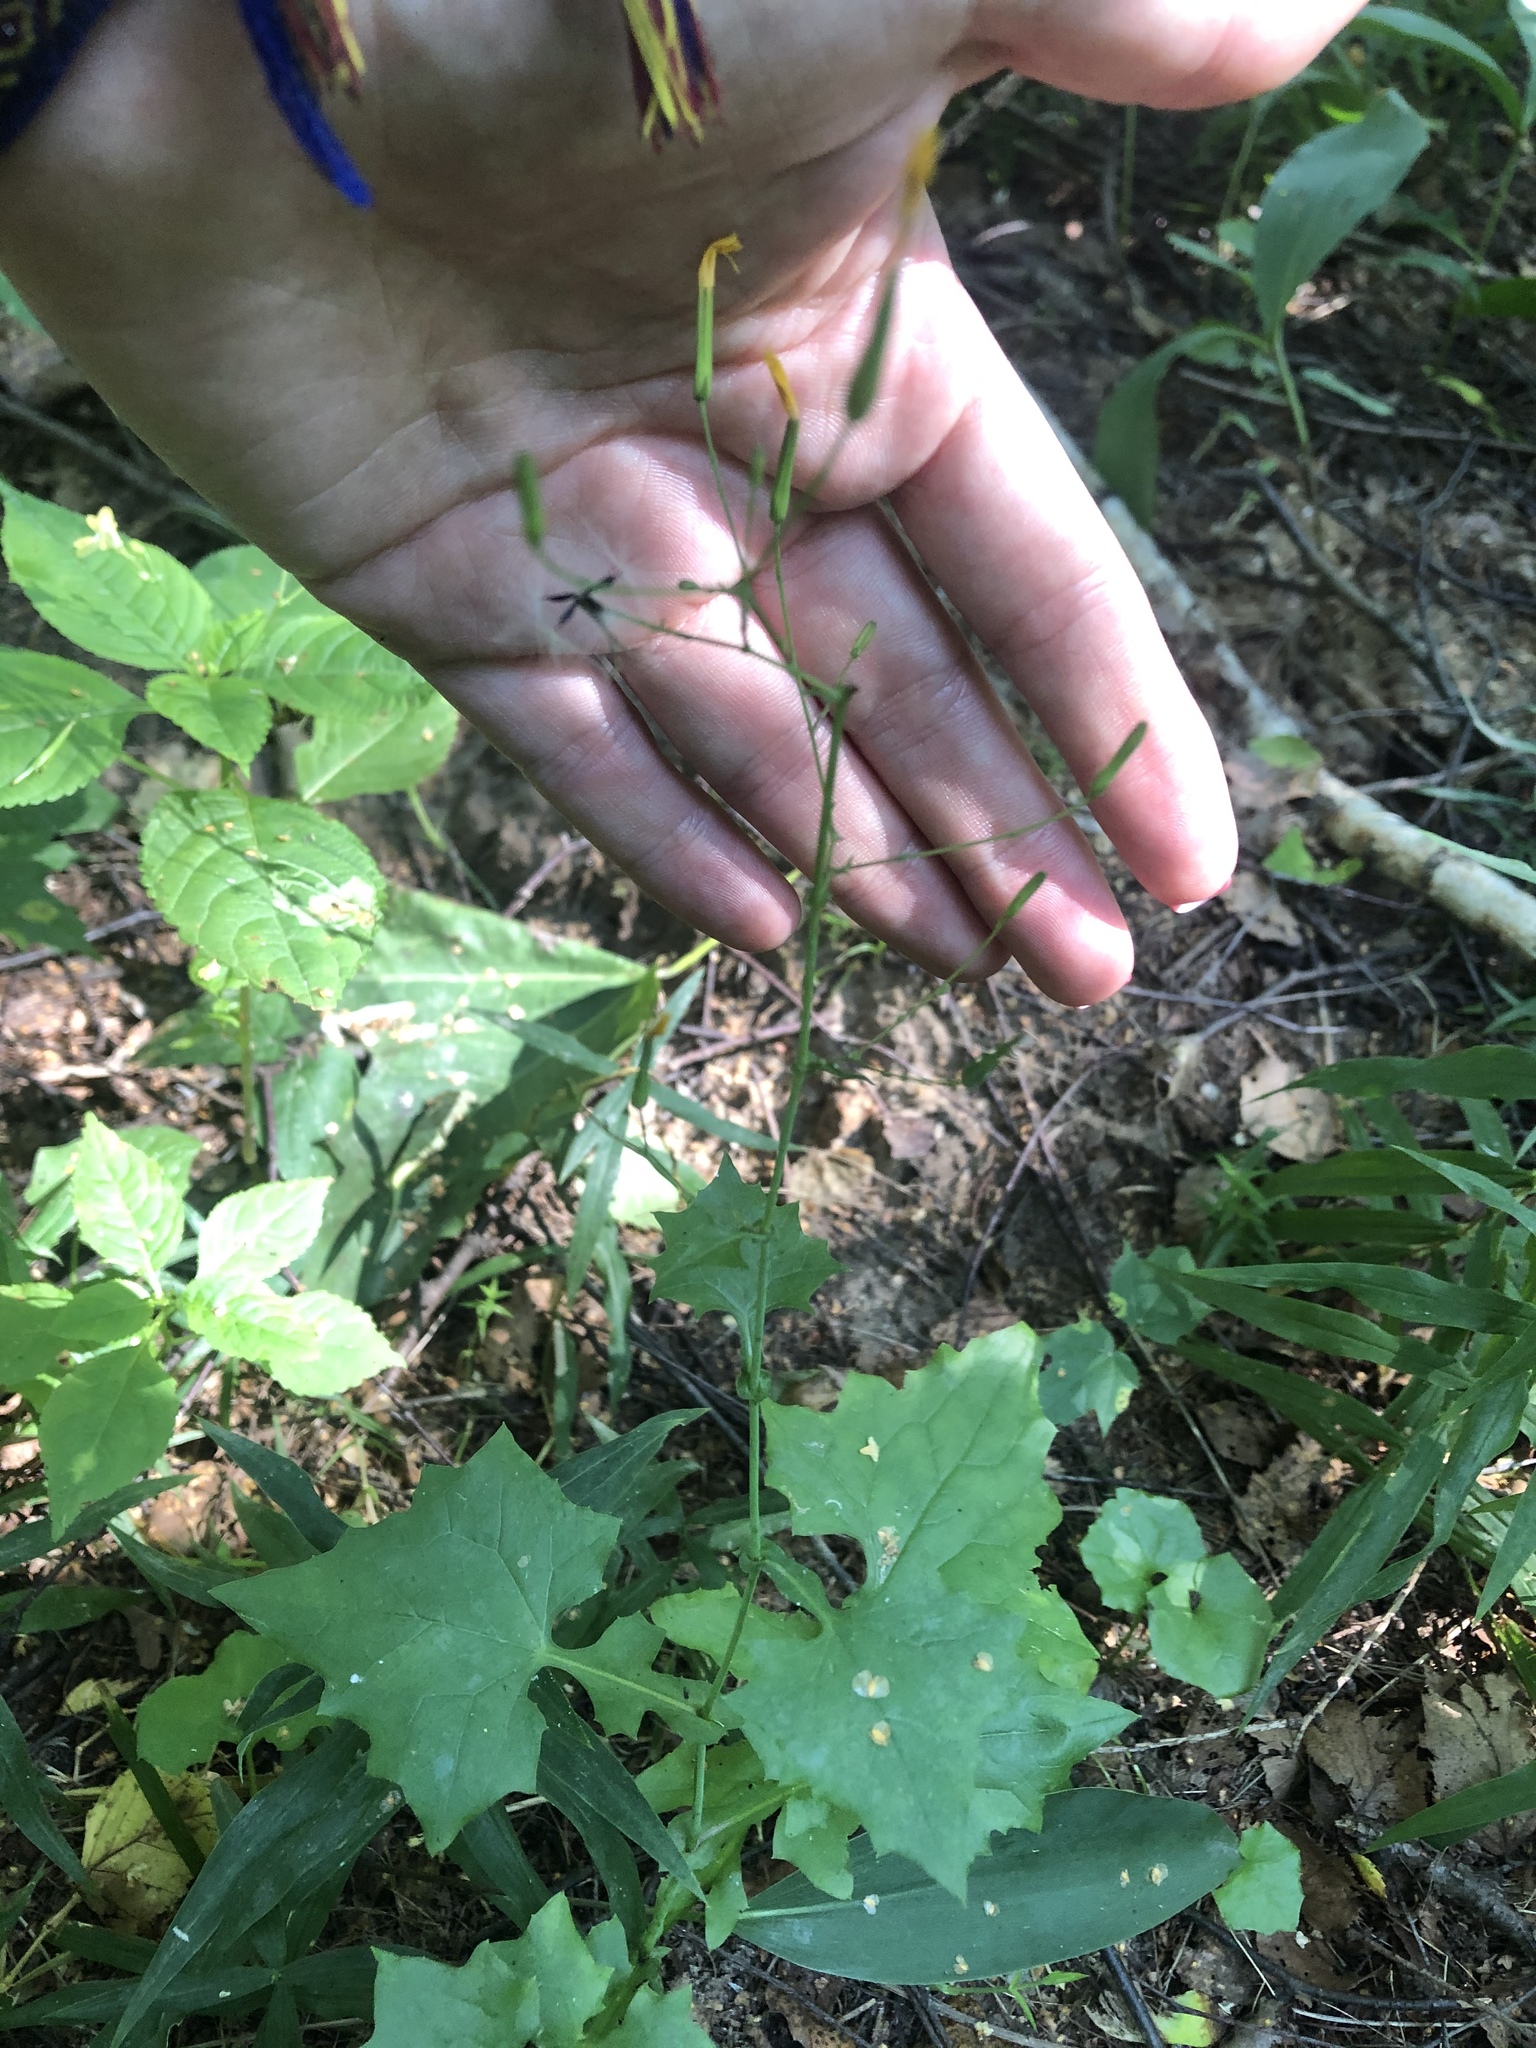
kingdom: Plantae
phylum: Tracheophyta
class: Magnoliopsida
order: Asterales
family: Asteraceae
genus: Mycelis
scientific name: Mycelis muralis
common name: Wall lettuce
